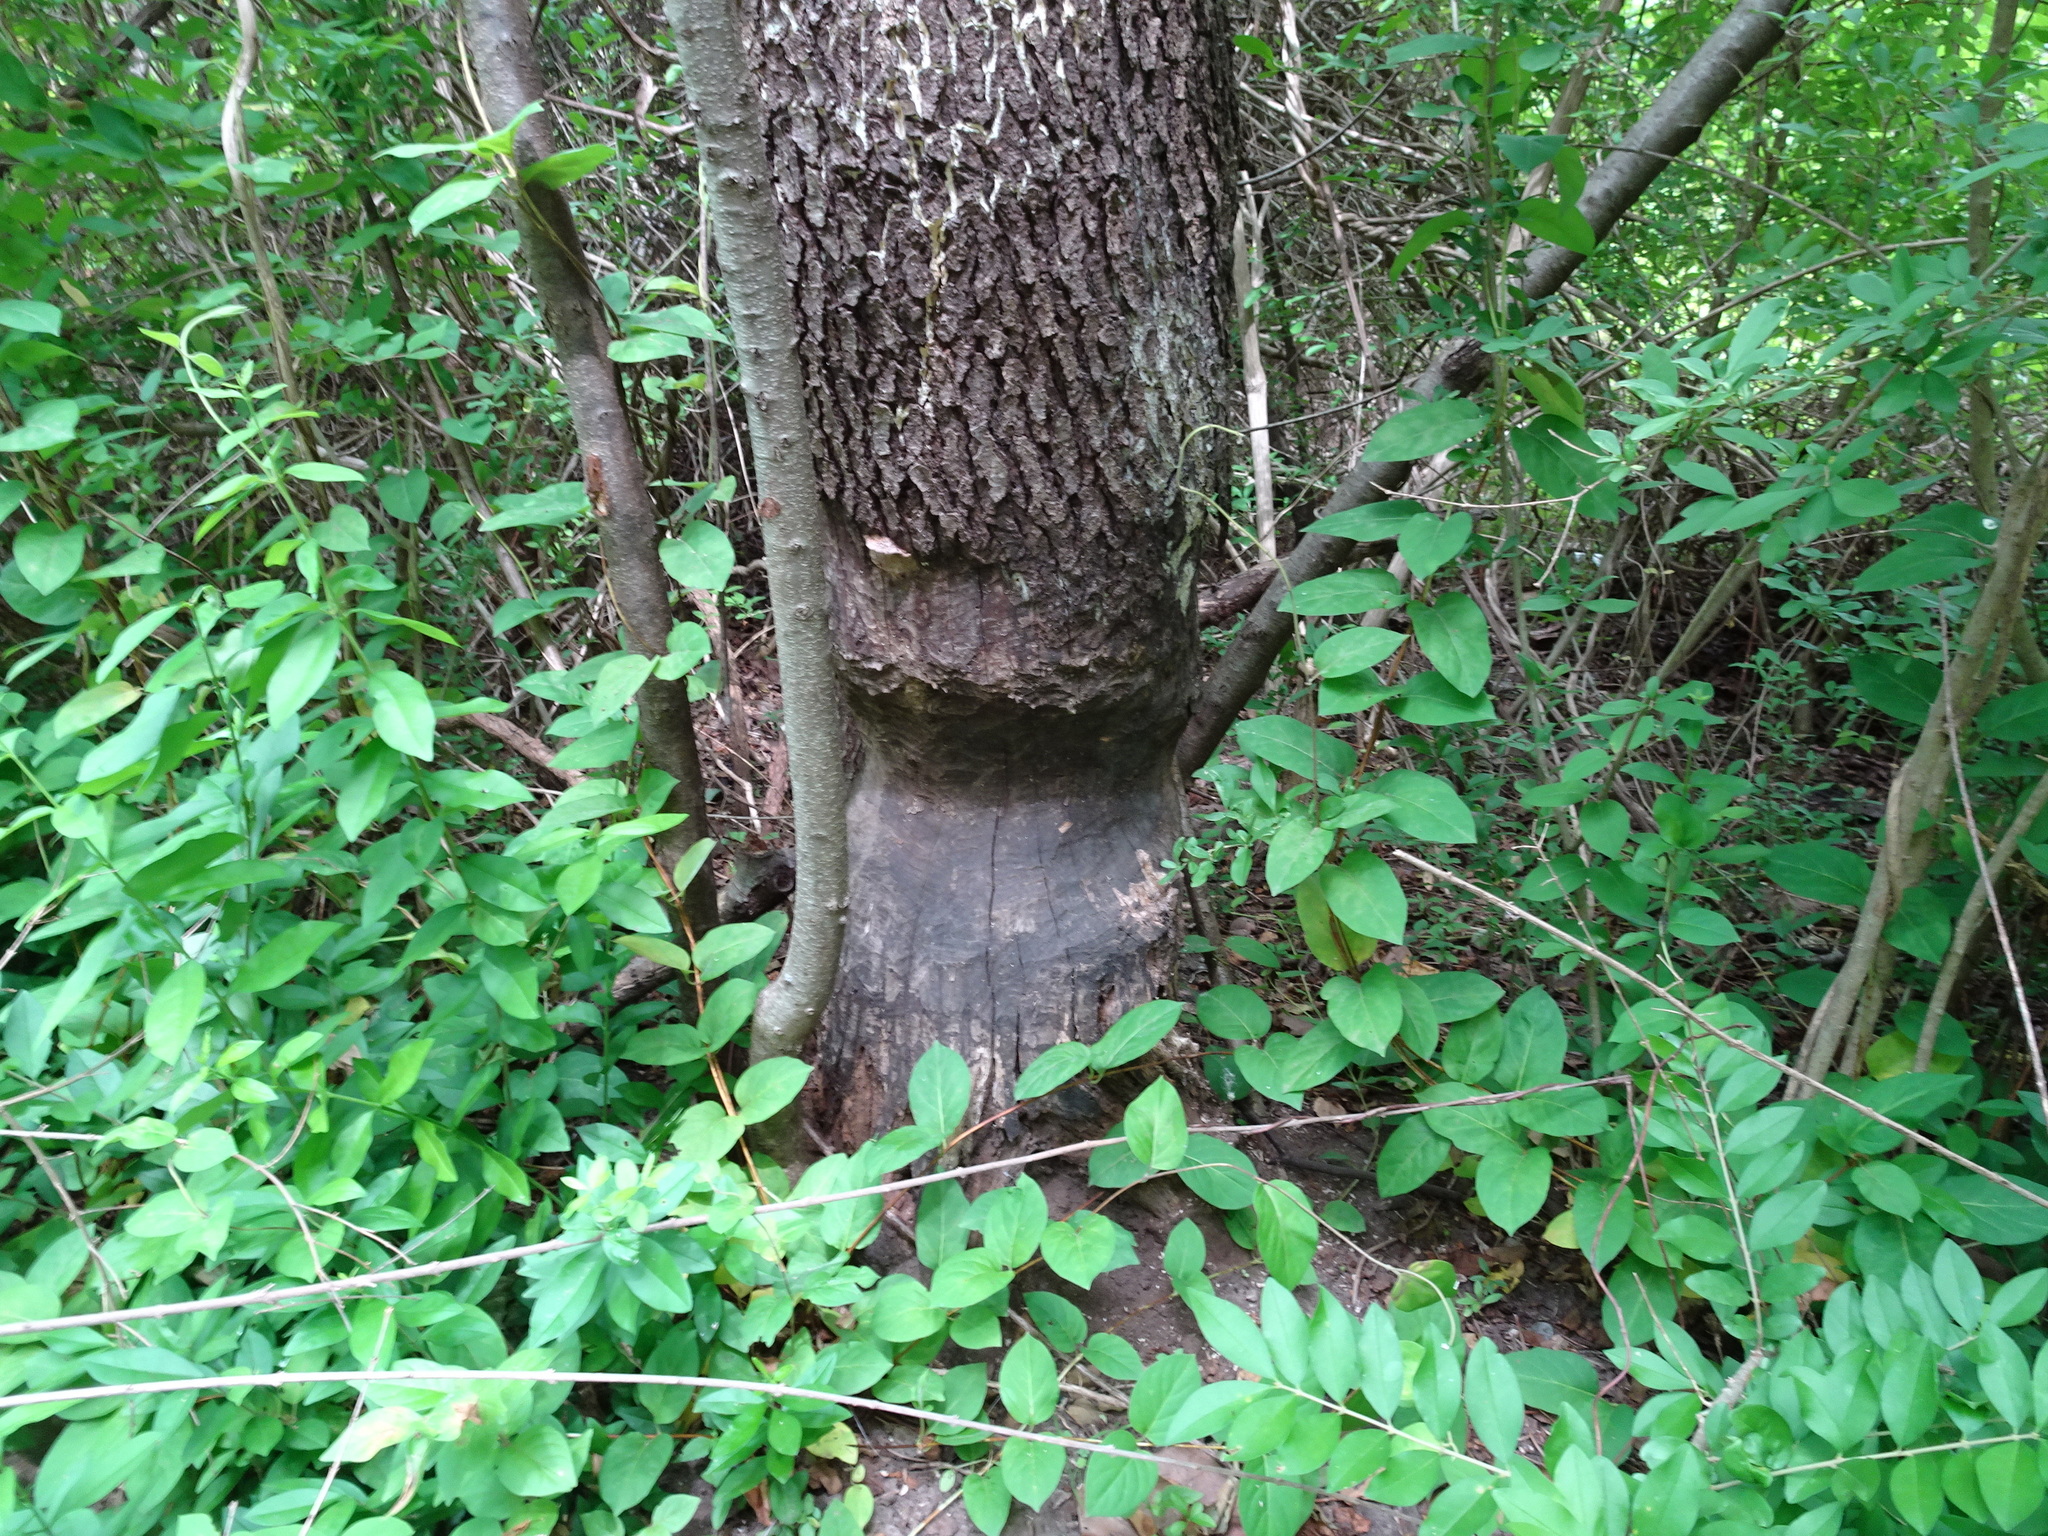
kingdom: Animalia
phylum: Chordata
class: Mammalia
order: Rodentia
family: Castoridae
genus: Castor
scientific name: Castor canadensis
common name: American beaver
